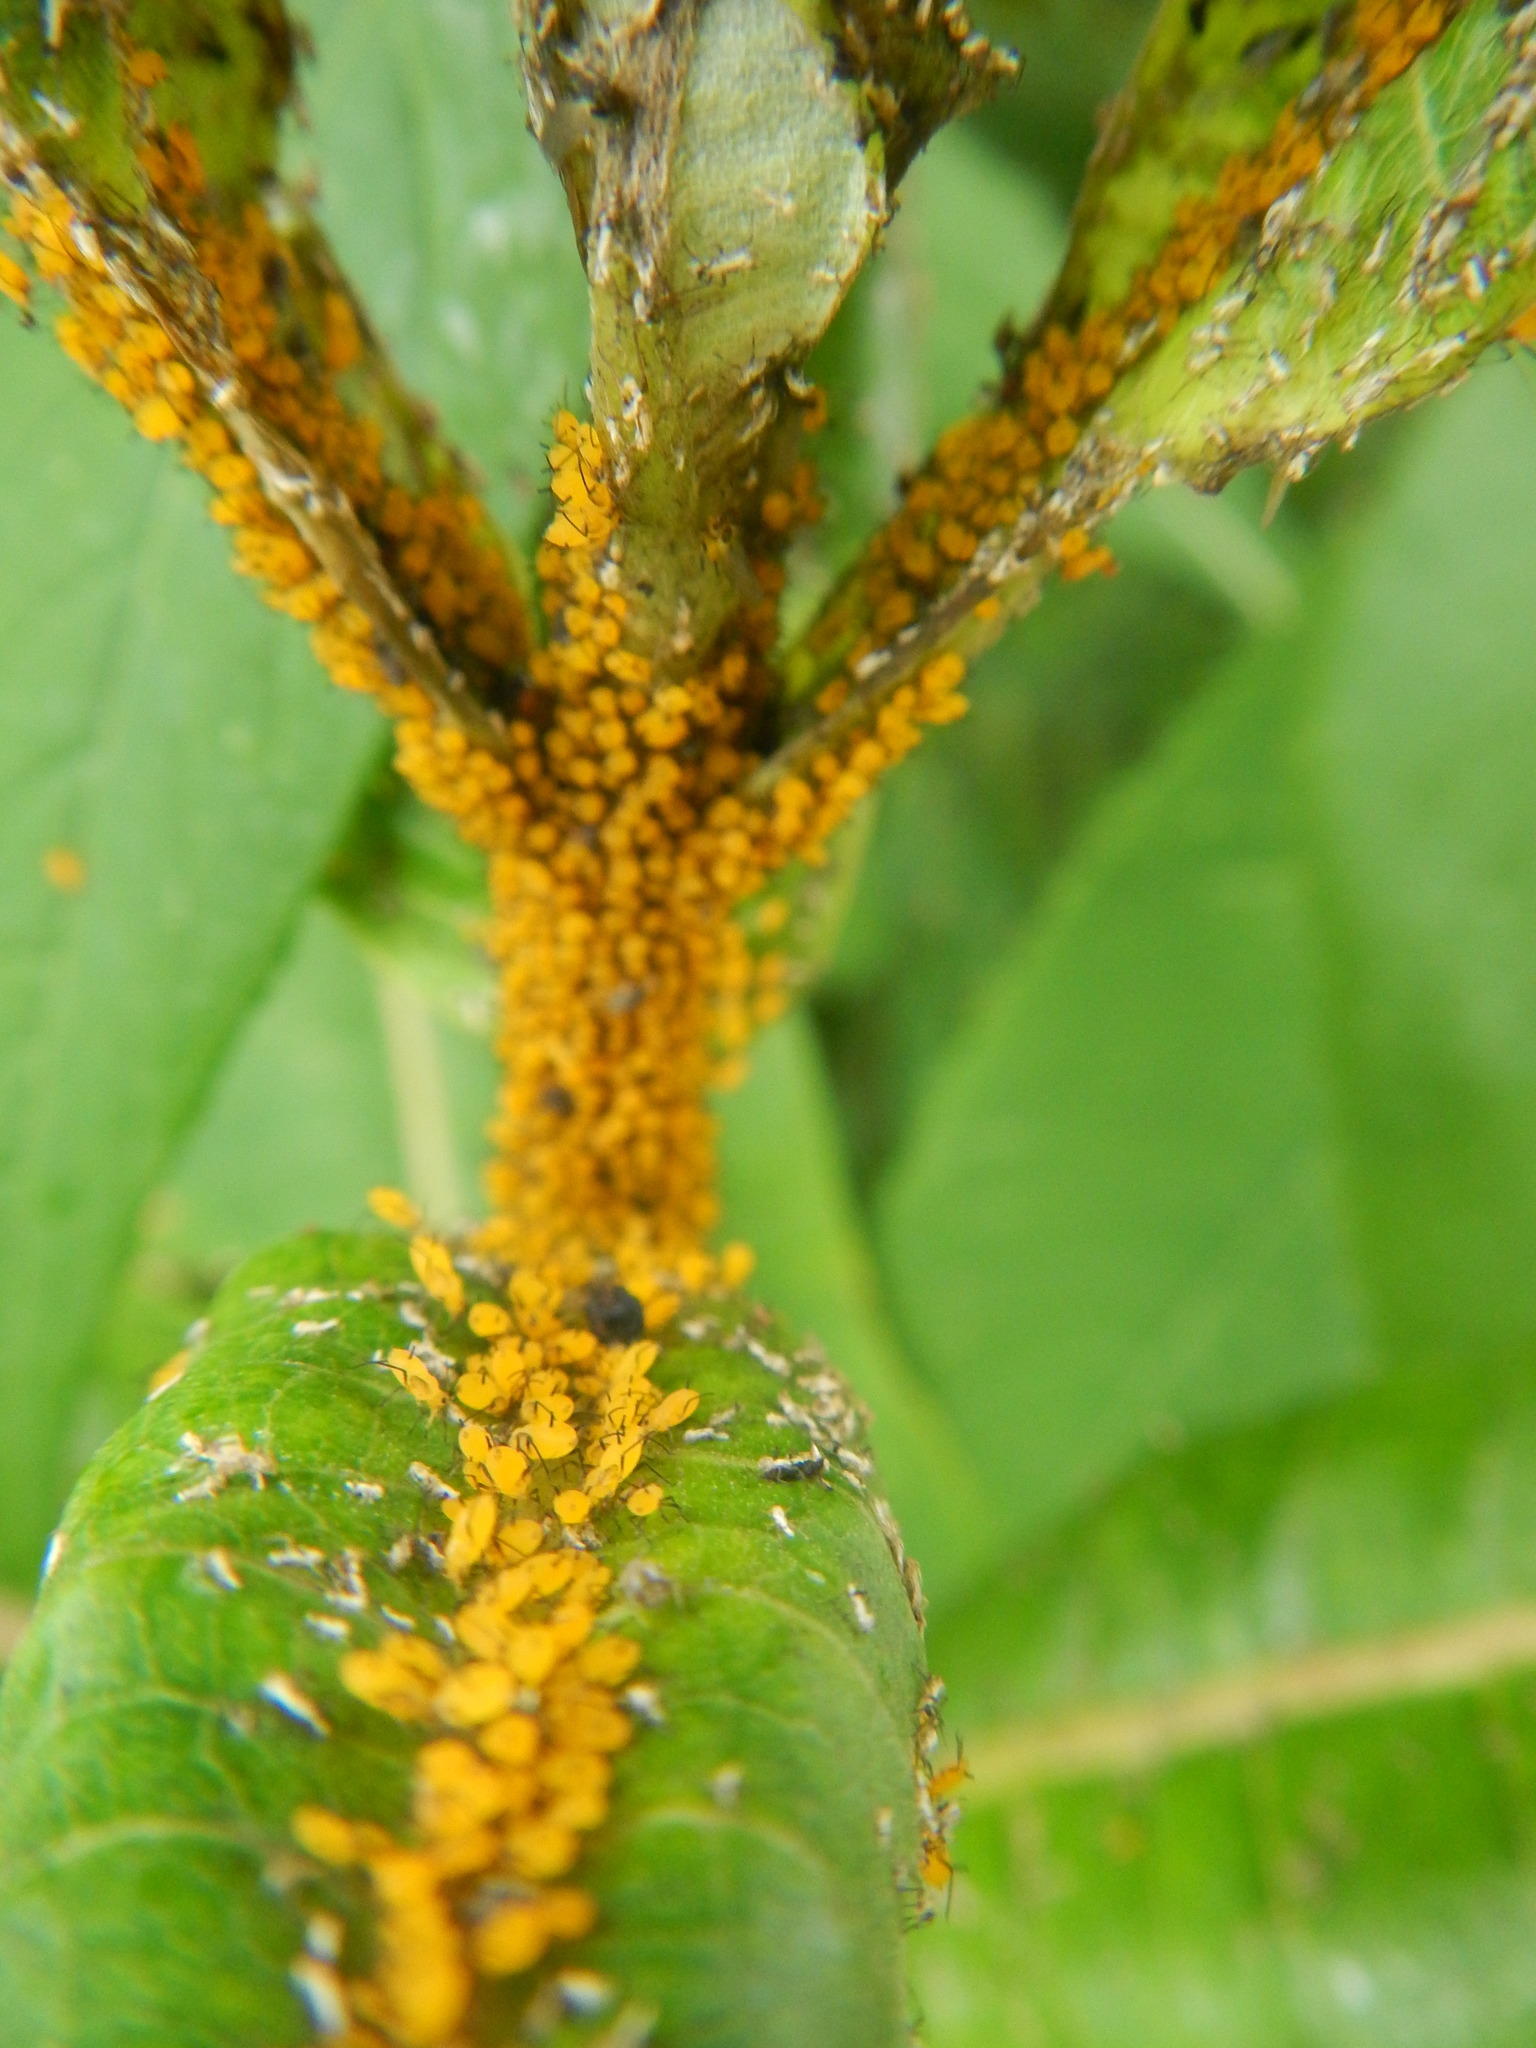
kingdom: Animalia
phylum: Arthropoda
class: Insecta
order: Hemiptera
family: Aphididae
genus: Aphis
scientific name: Aphis nerii
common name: Oleander aphid
